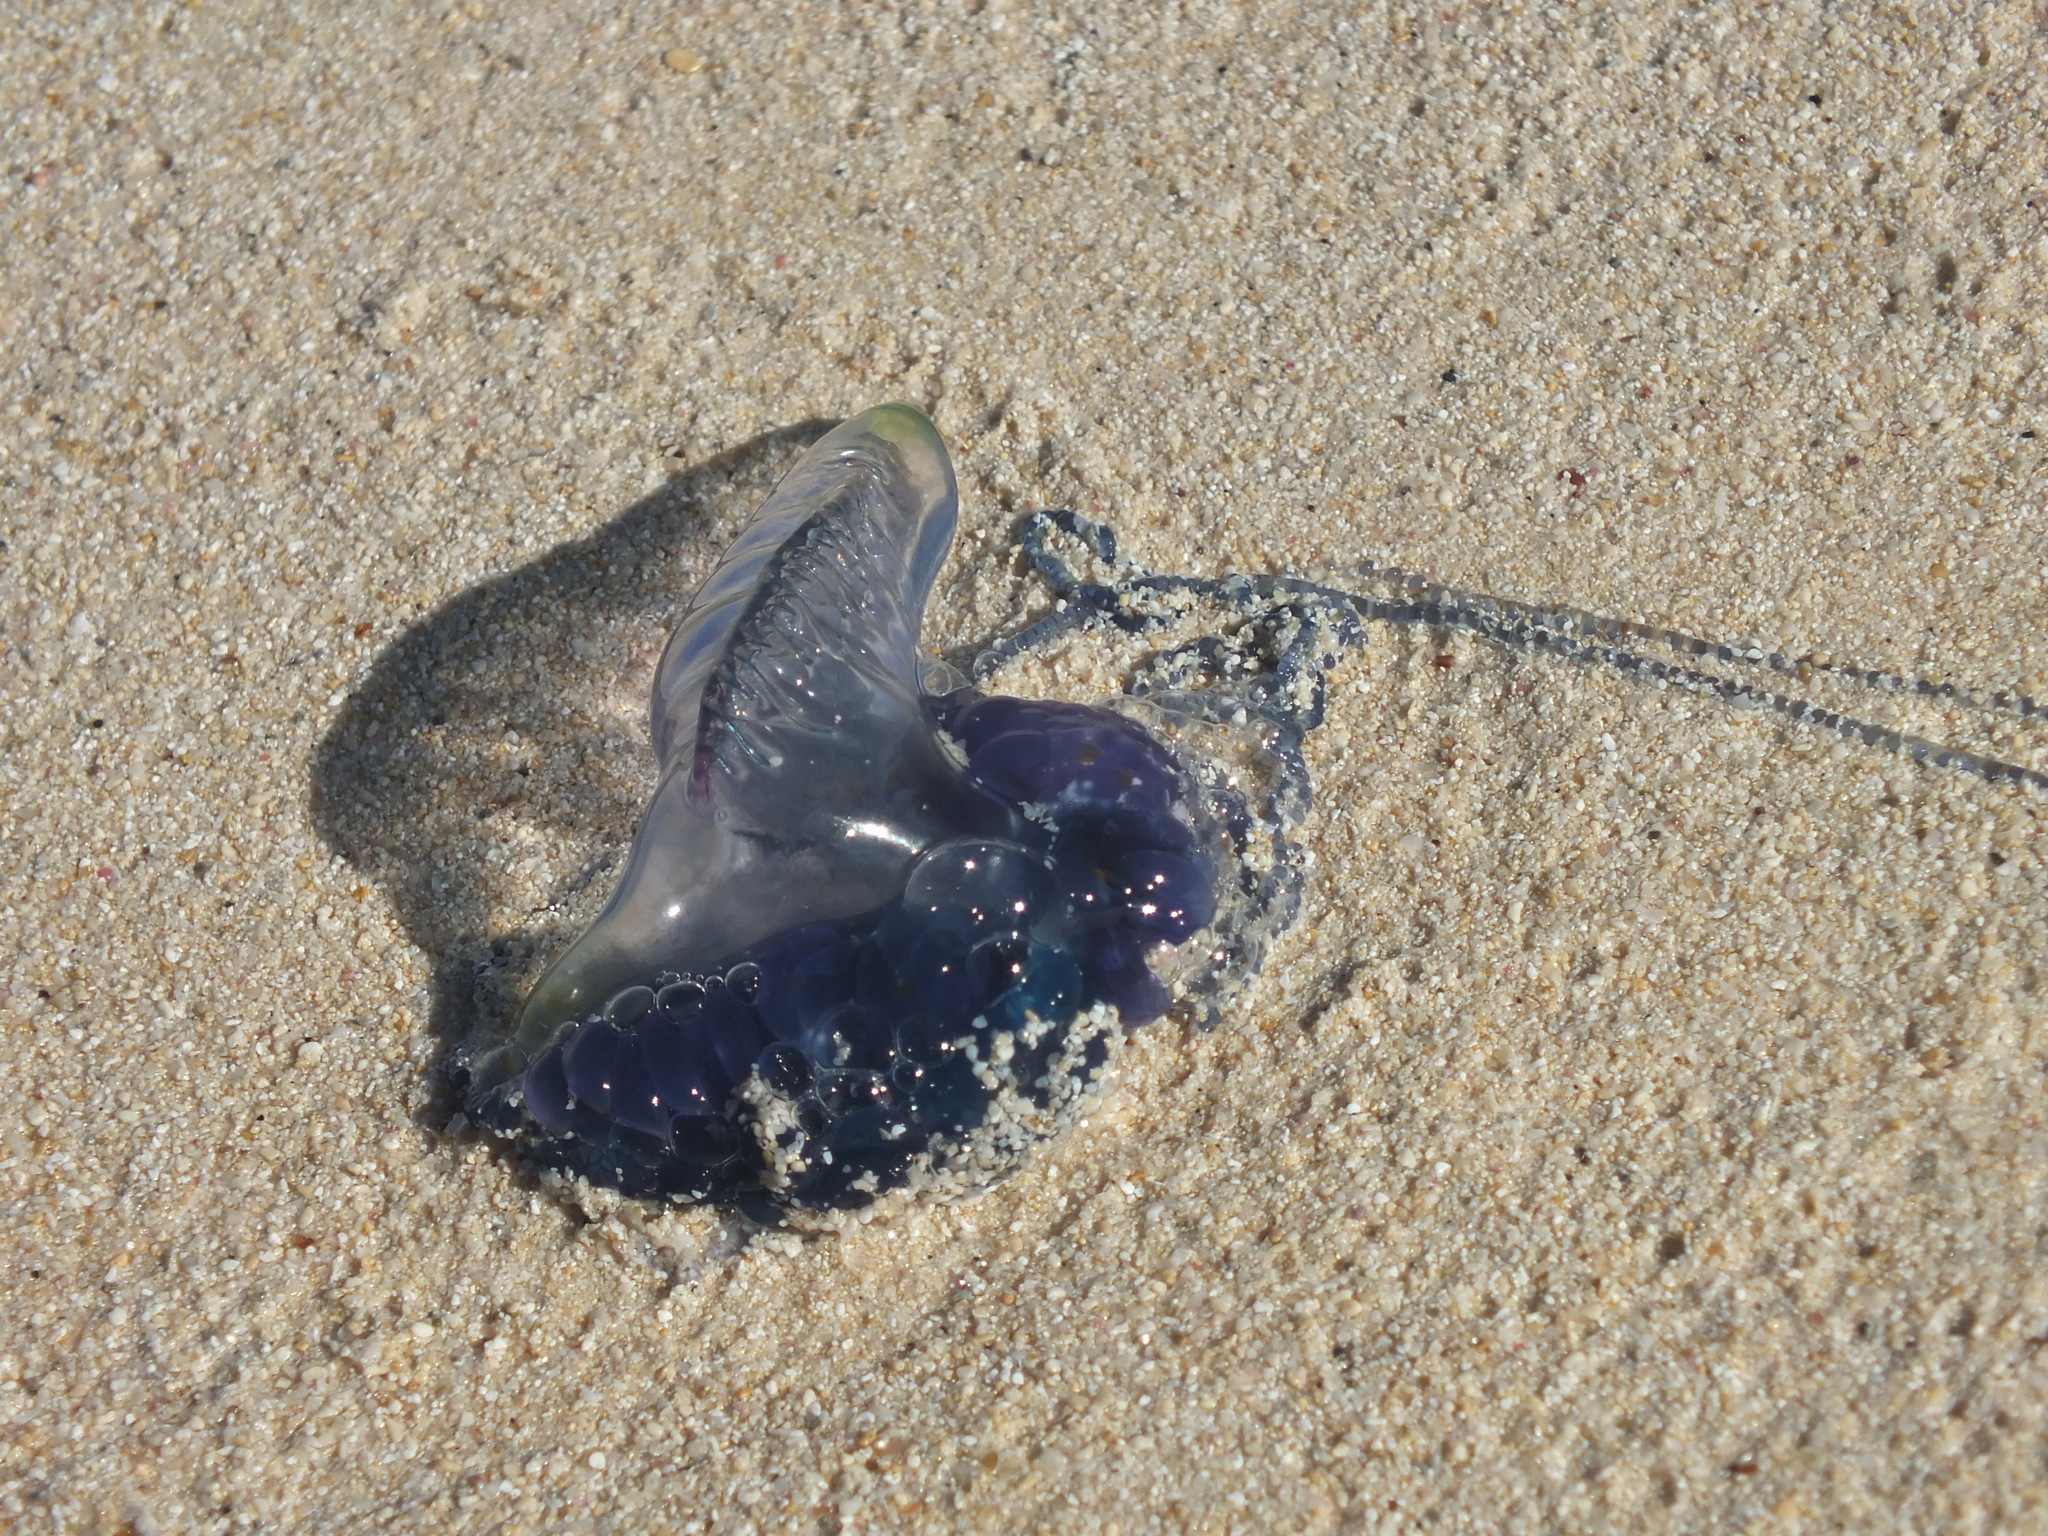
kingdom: Animalia
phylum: Cnidaria
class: Hydrozoa
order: Siphonophorae
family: Physaliidae
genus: Physalia
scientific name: Physalia physalis
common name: Portuguese man-of-war
